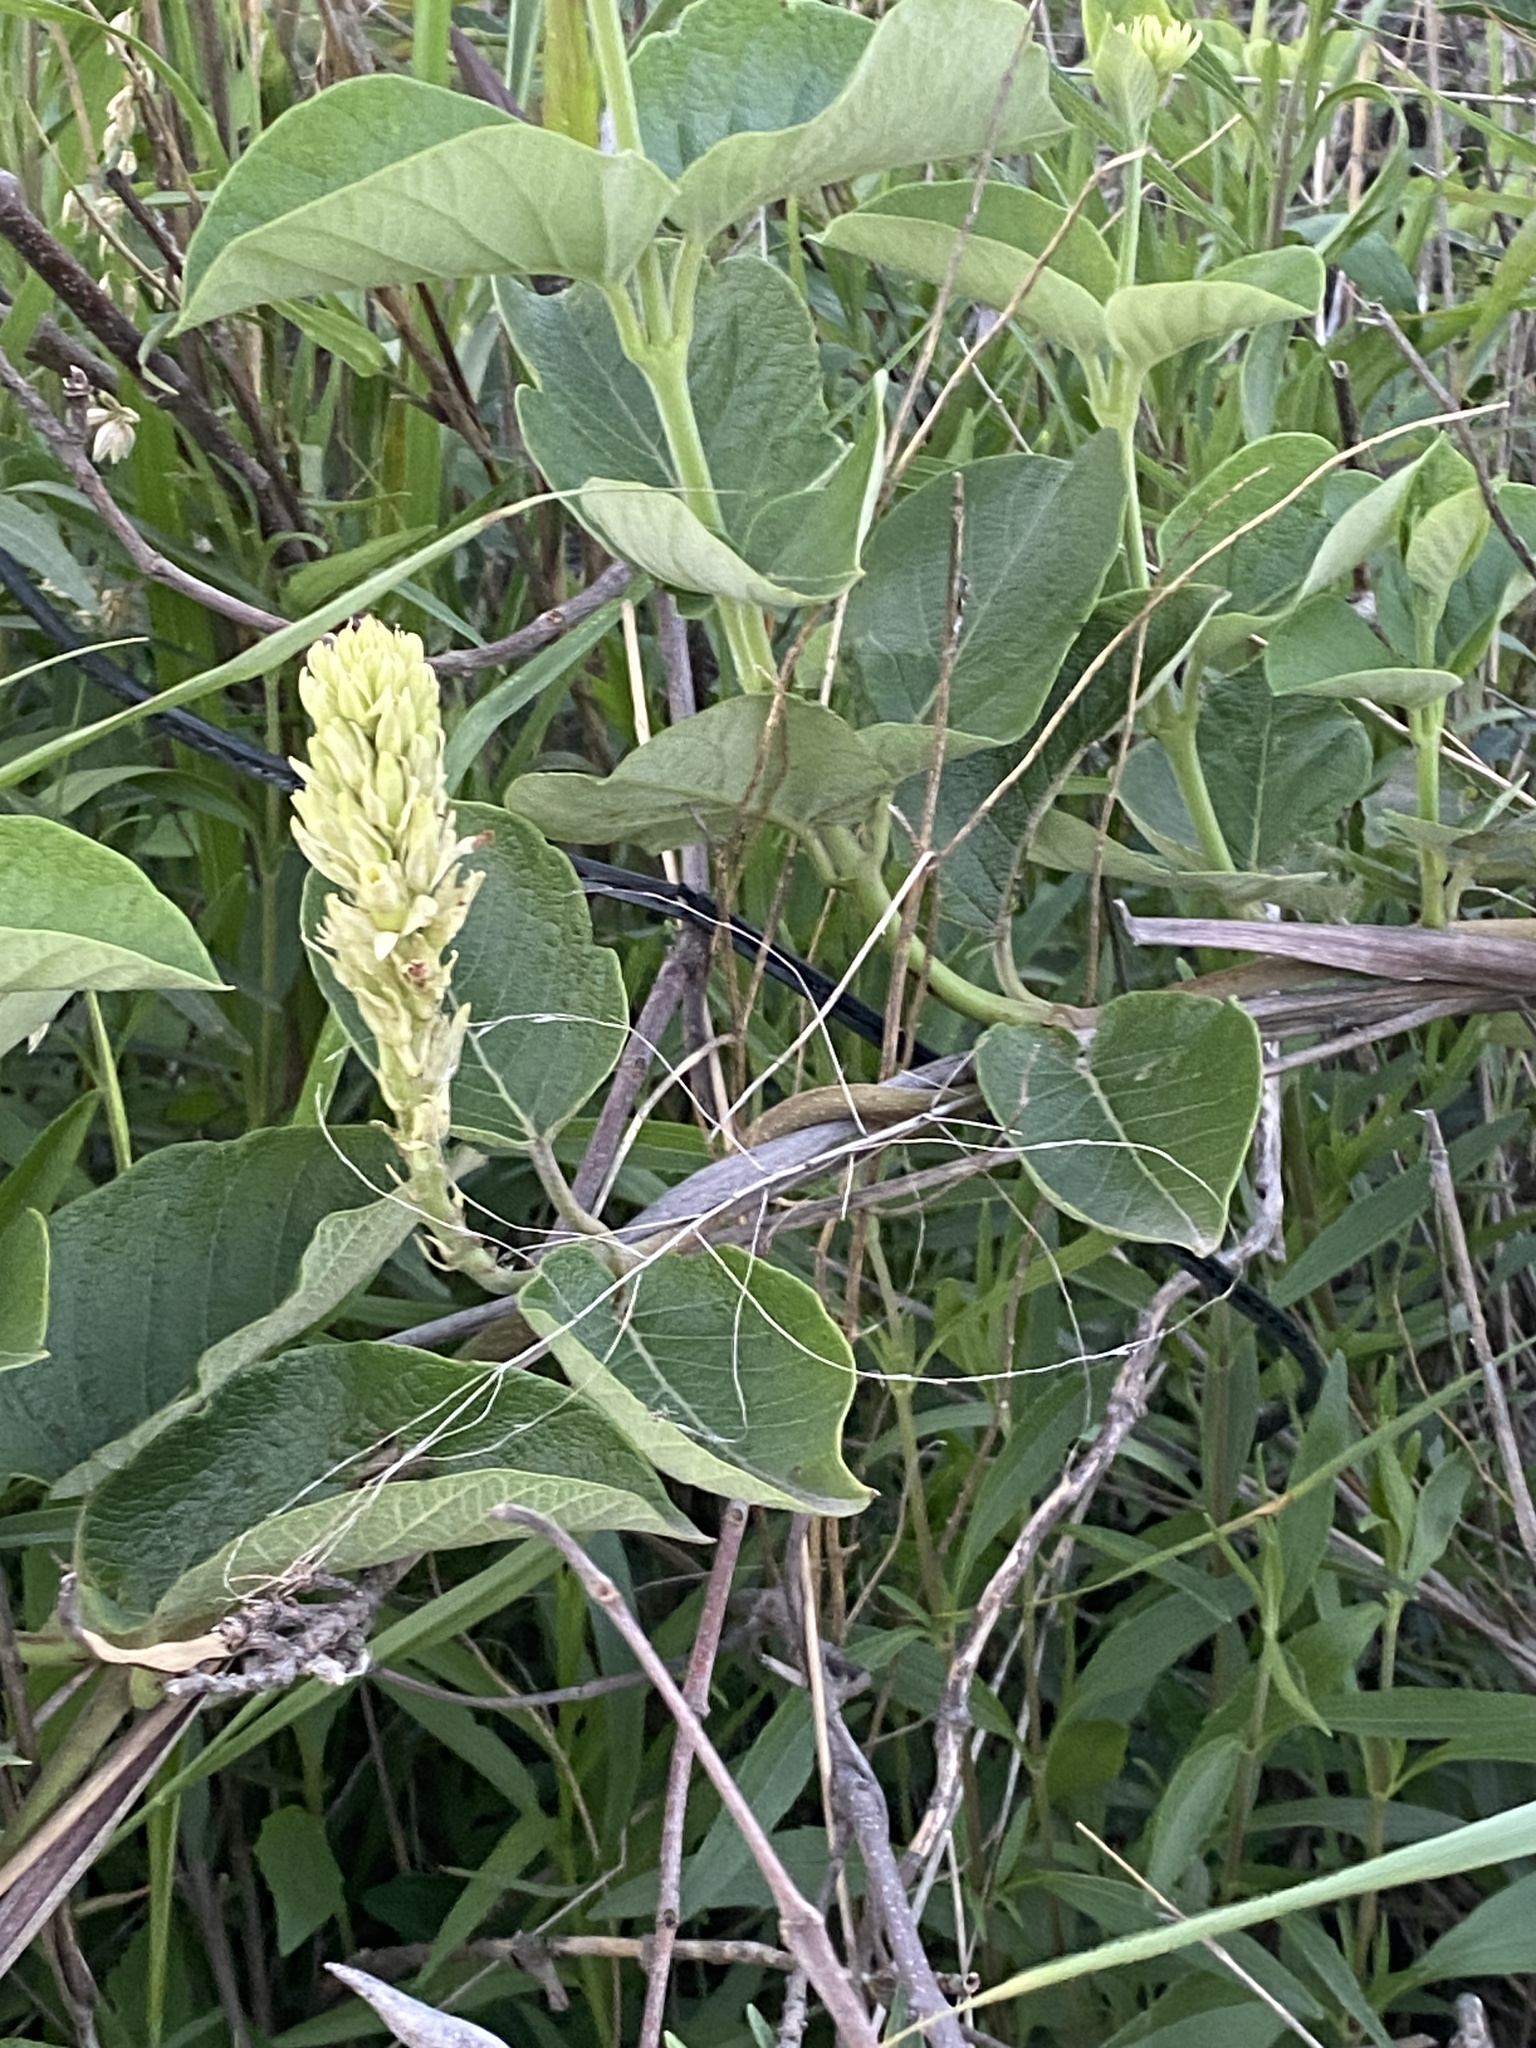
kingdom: Plantae
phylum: Tracheophyta
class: Magnoliopsida
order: Gentianales
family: Apocynaceae
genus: Mandevilla
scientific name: Mandevilla pentlandiana
